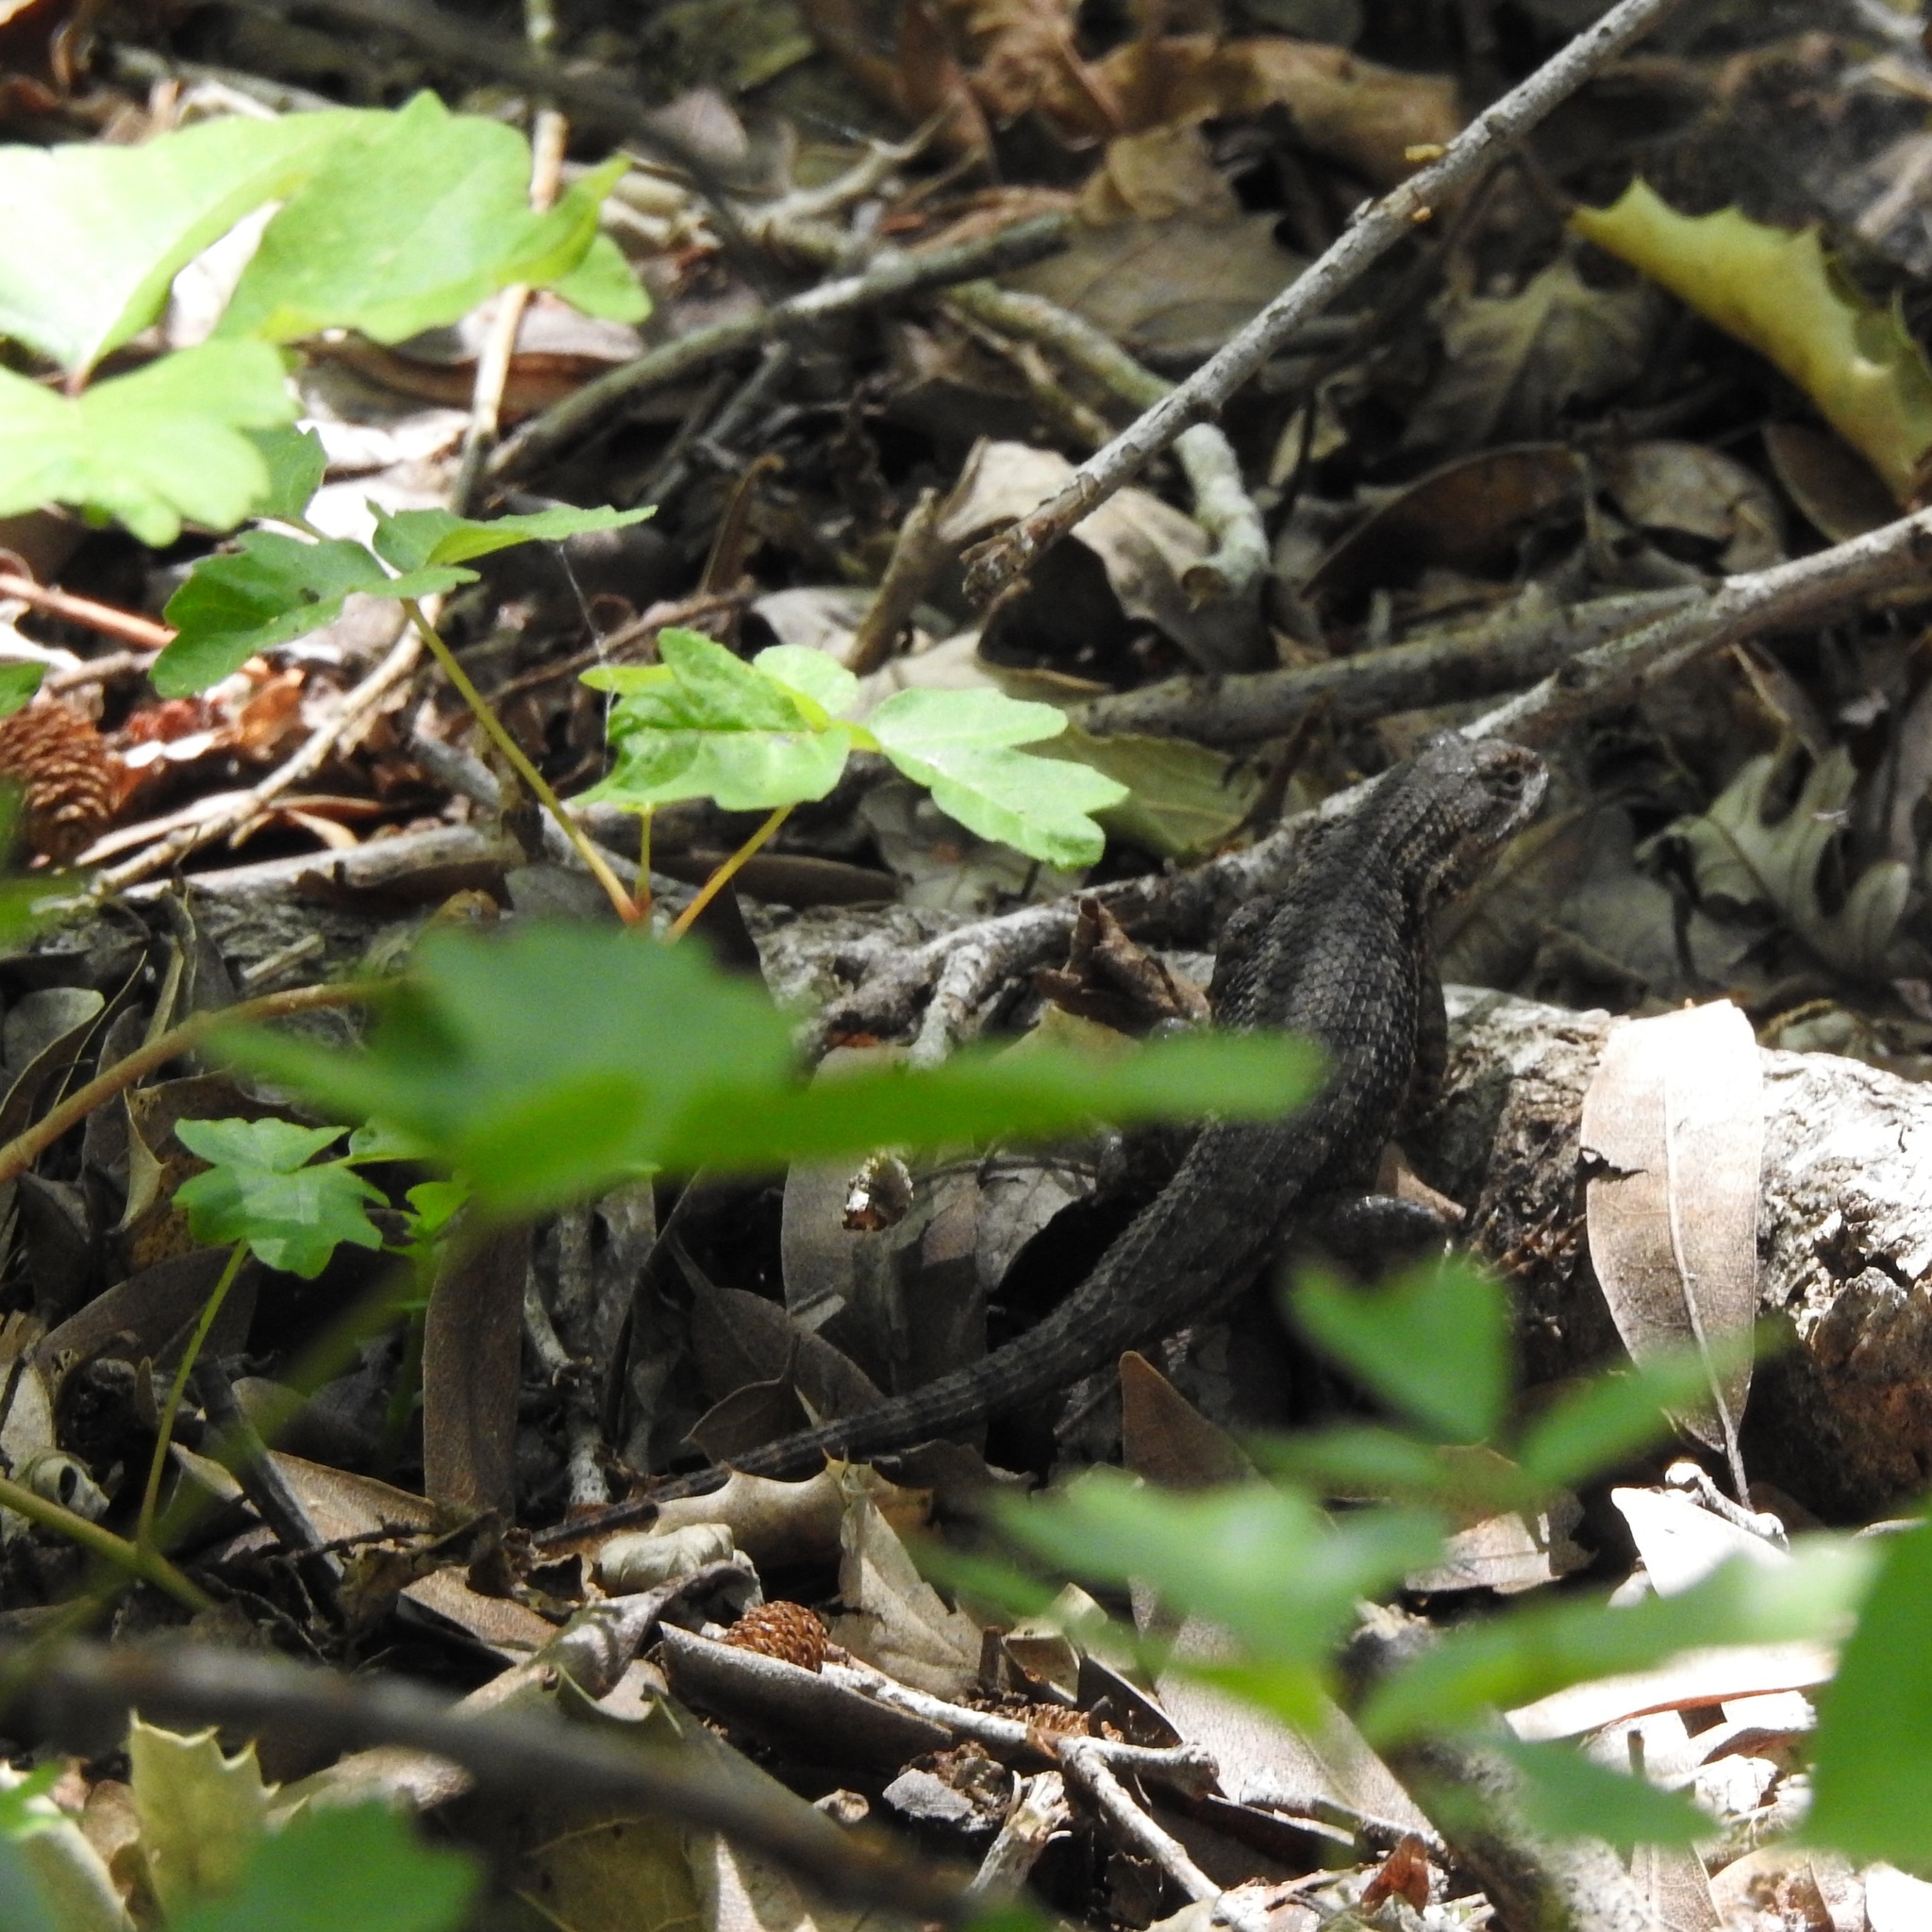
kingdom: Animalia
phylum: Chordata
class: Squamata
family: Phrynosomatidae
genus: Sceloporus
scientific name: Sceloporus occidentalis
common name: Western fence lizard
